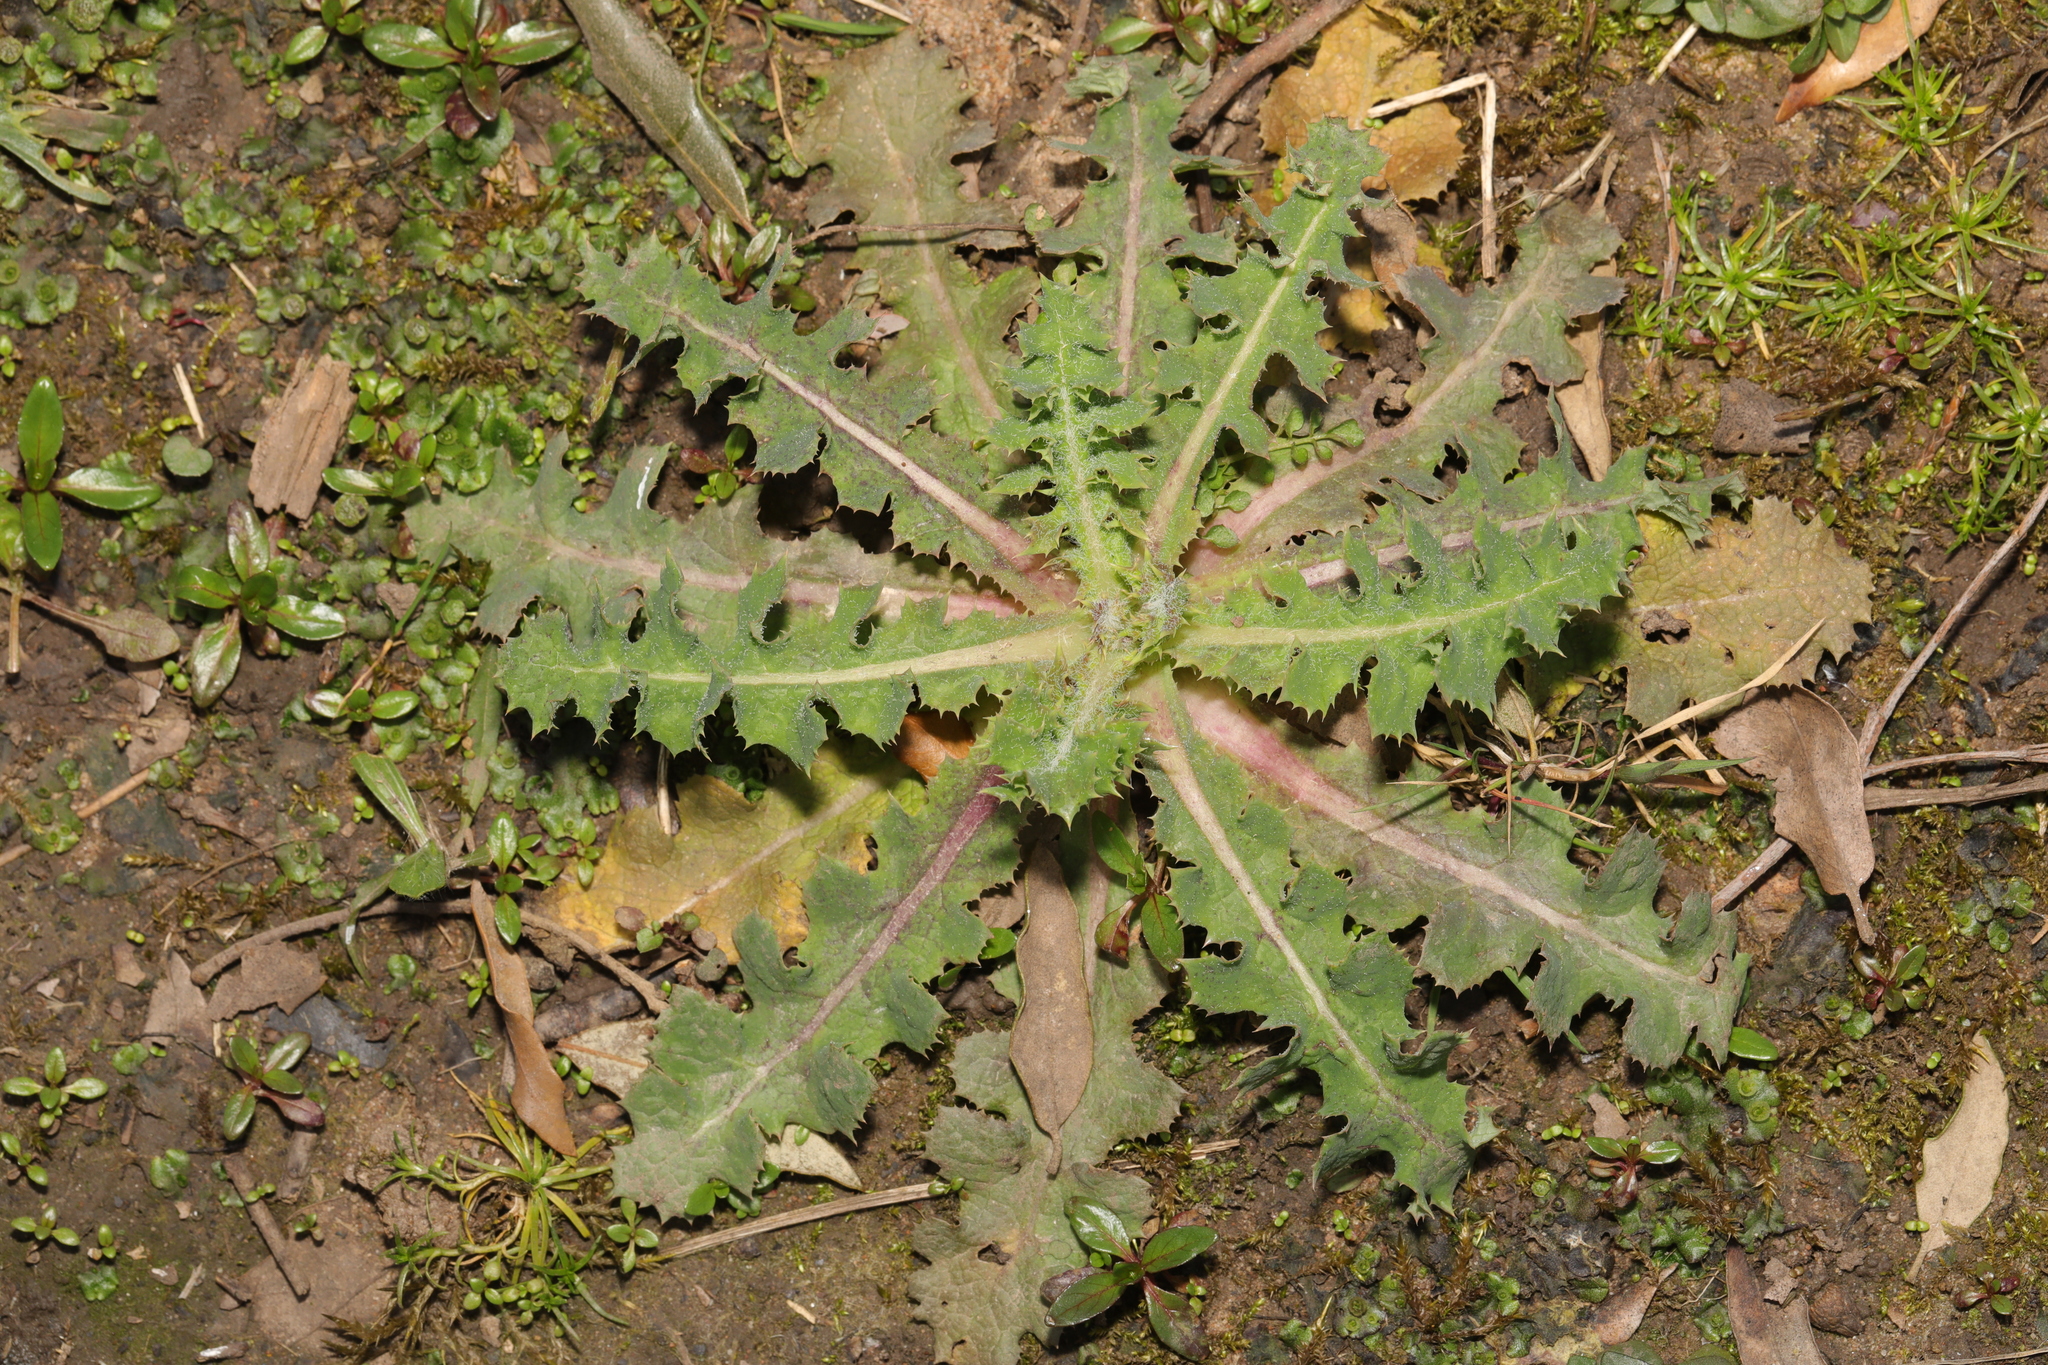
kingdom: Plantae
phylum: Tracheophyta
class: Magnoliopsida
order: Asterales
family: Asteraceae
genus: Sonchus
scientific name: Sonchus asper
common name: Prickly sow-thistle
